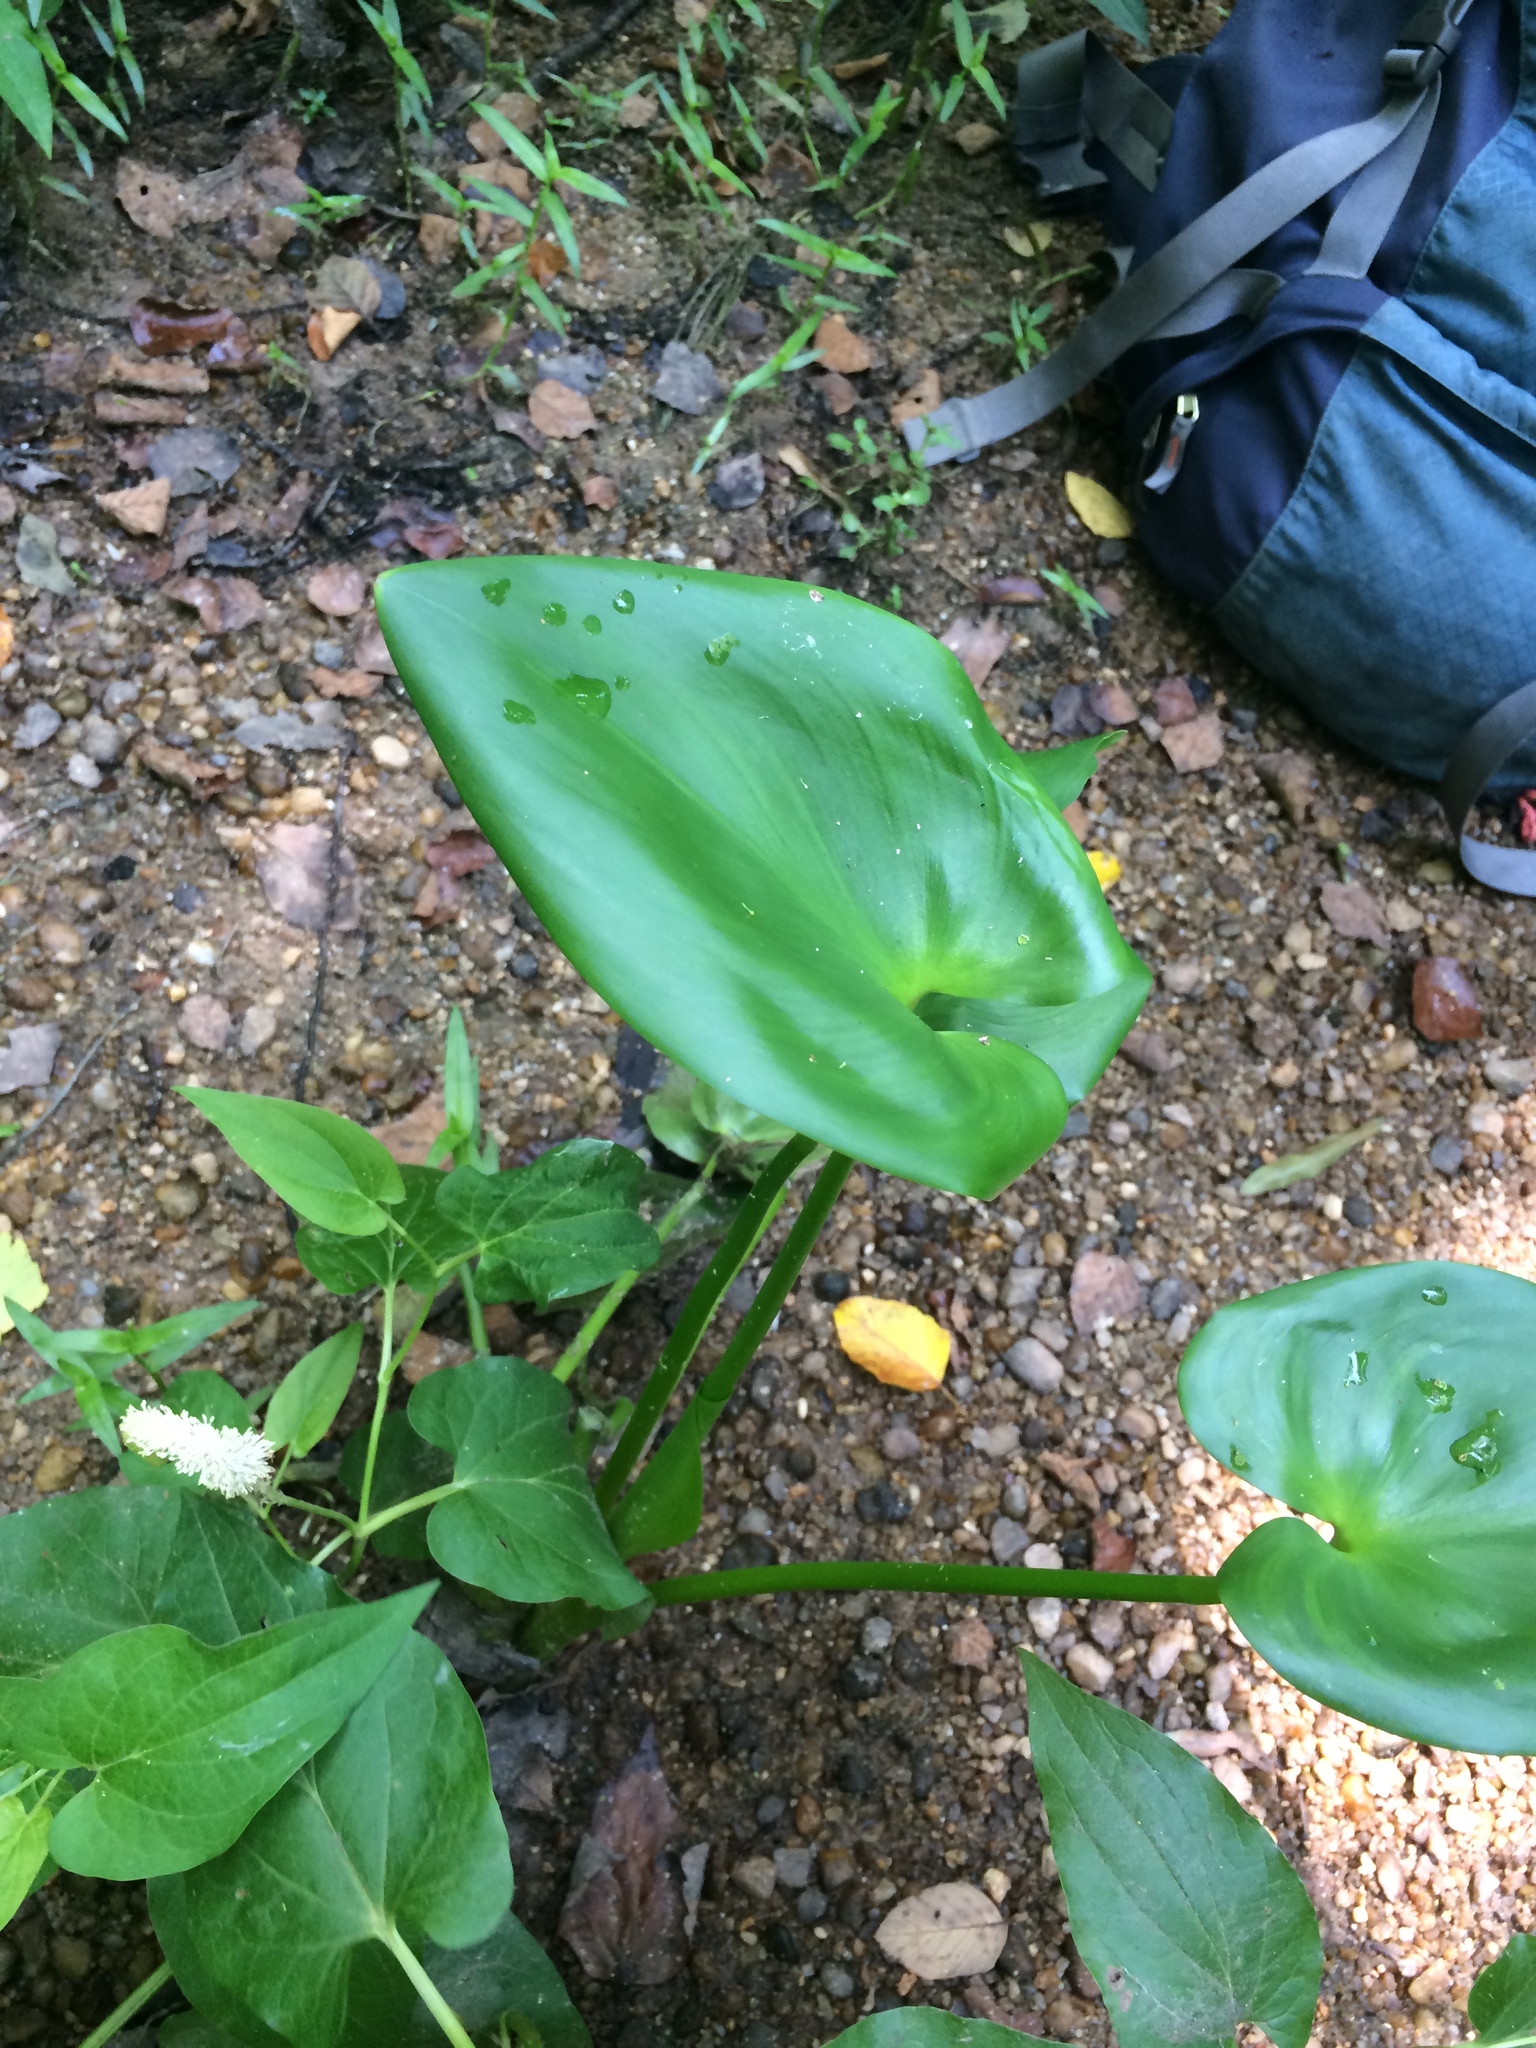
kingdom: Plantae
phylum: Tracheophyta
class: Liliopsida
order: Commelinales
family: Pontederiaceae
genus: Pontederia
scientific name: Pontederia cordata
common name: Pickerelweed
